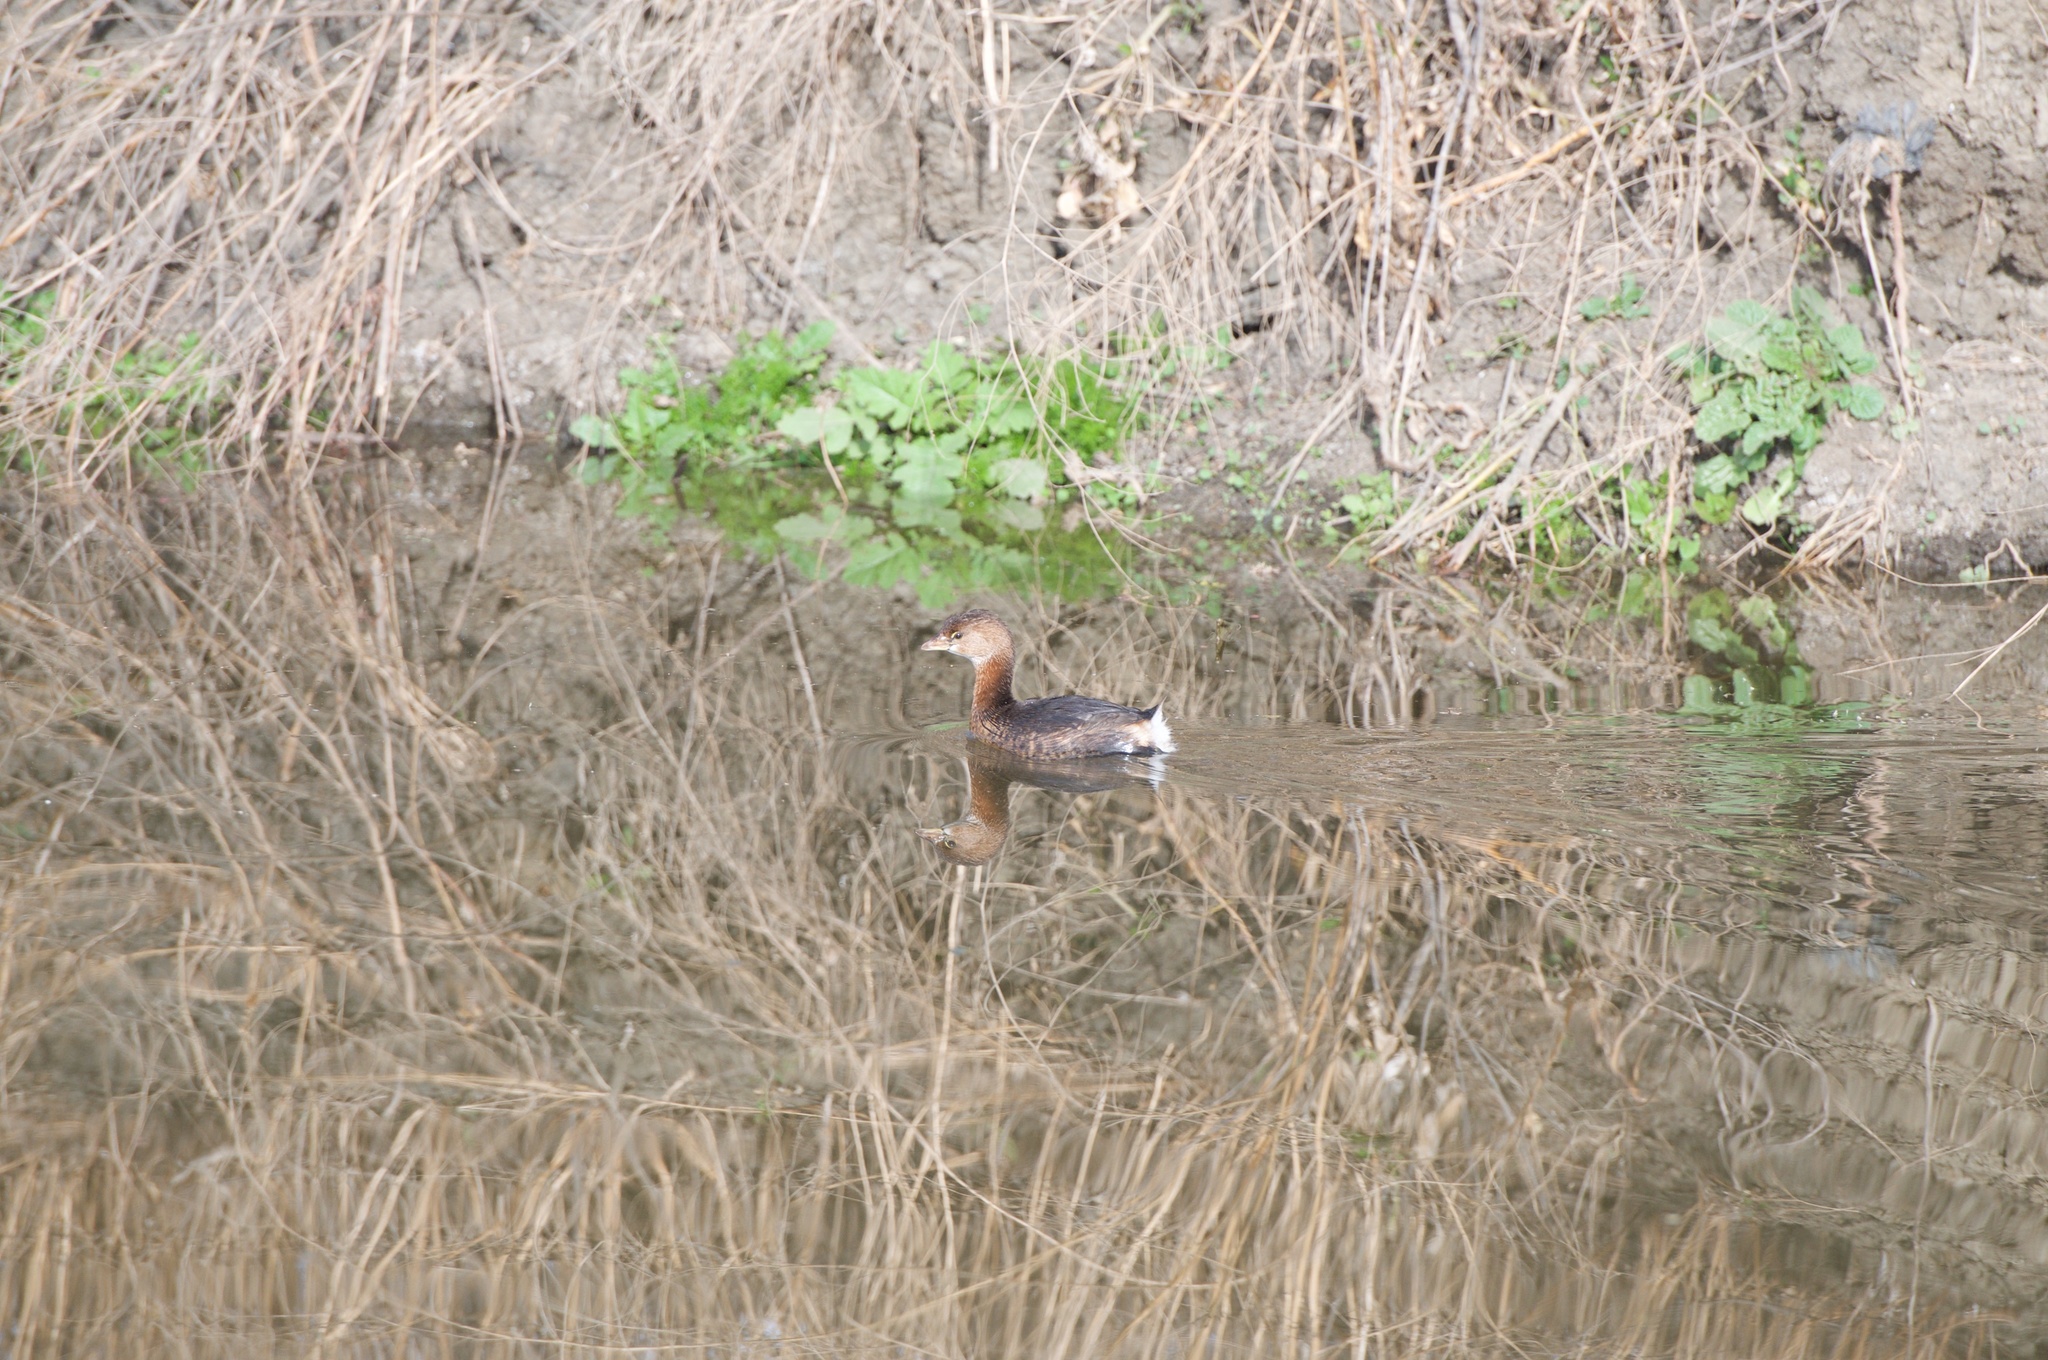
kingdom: Animalia
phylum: Chordata
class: Aves
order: Podicipediformes
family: Podicipedidae
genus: Podilymbus
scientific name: Podilymbus podiceps
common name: Pied-billed grebe
